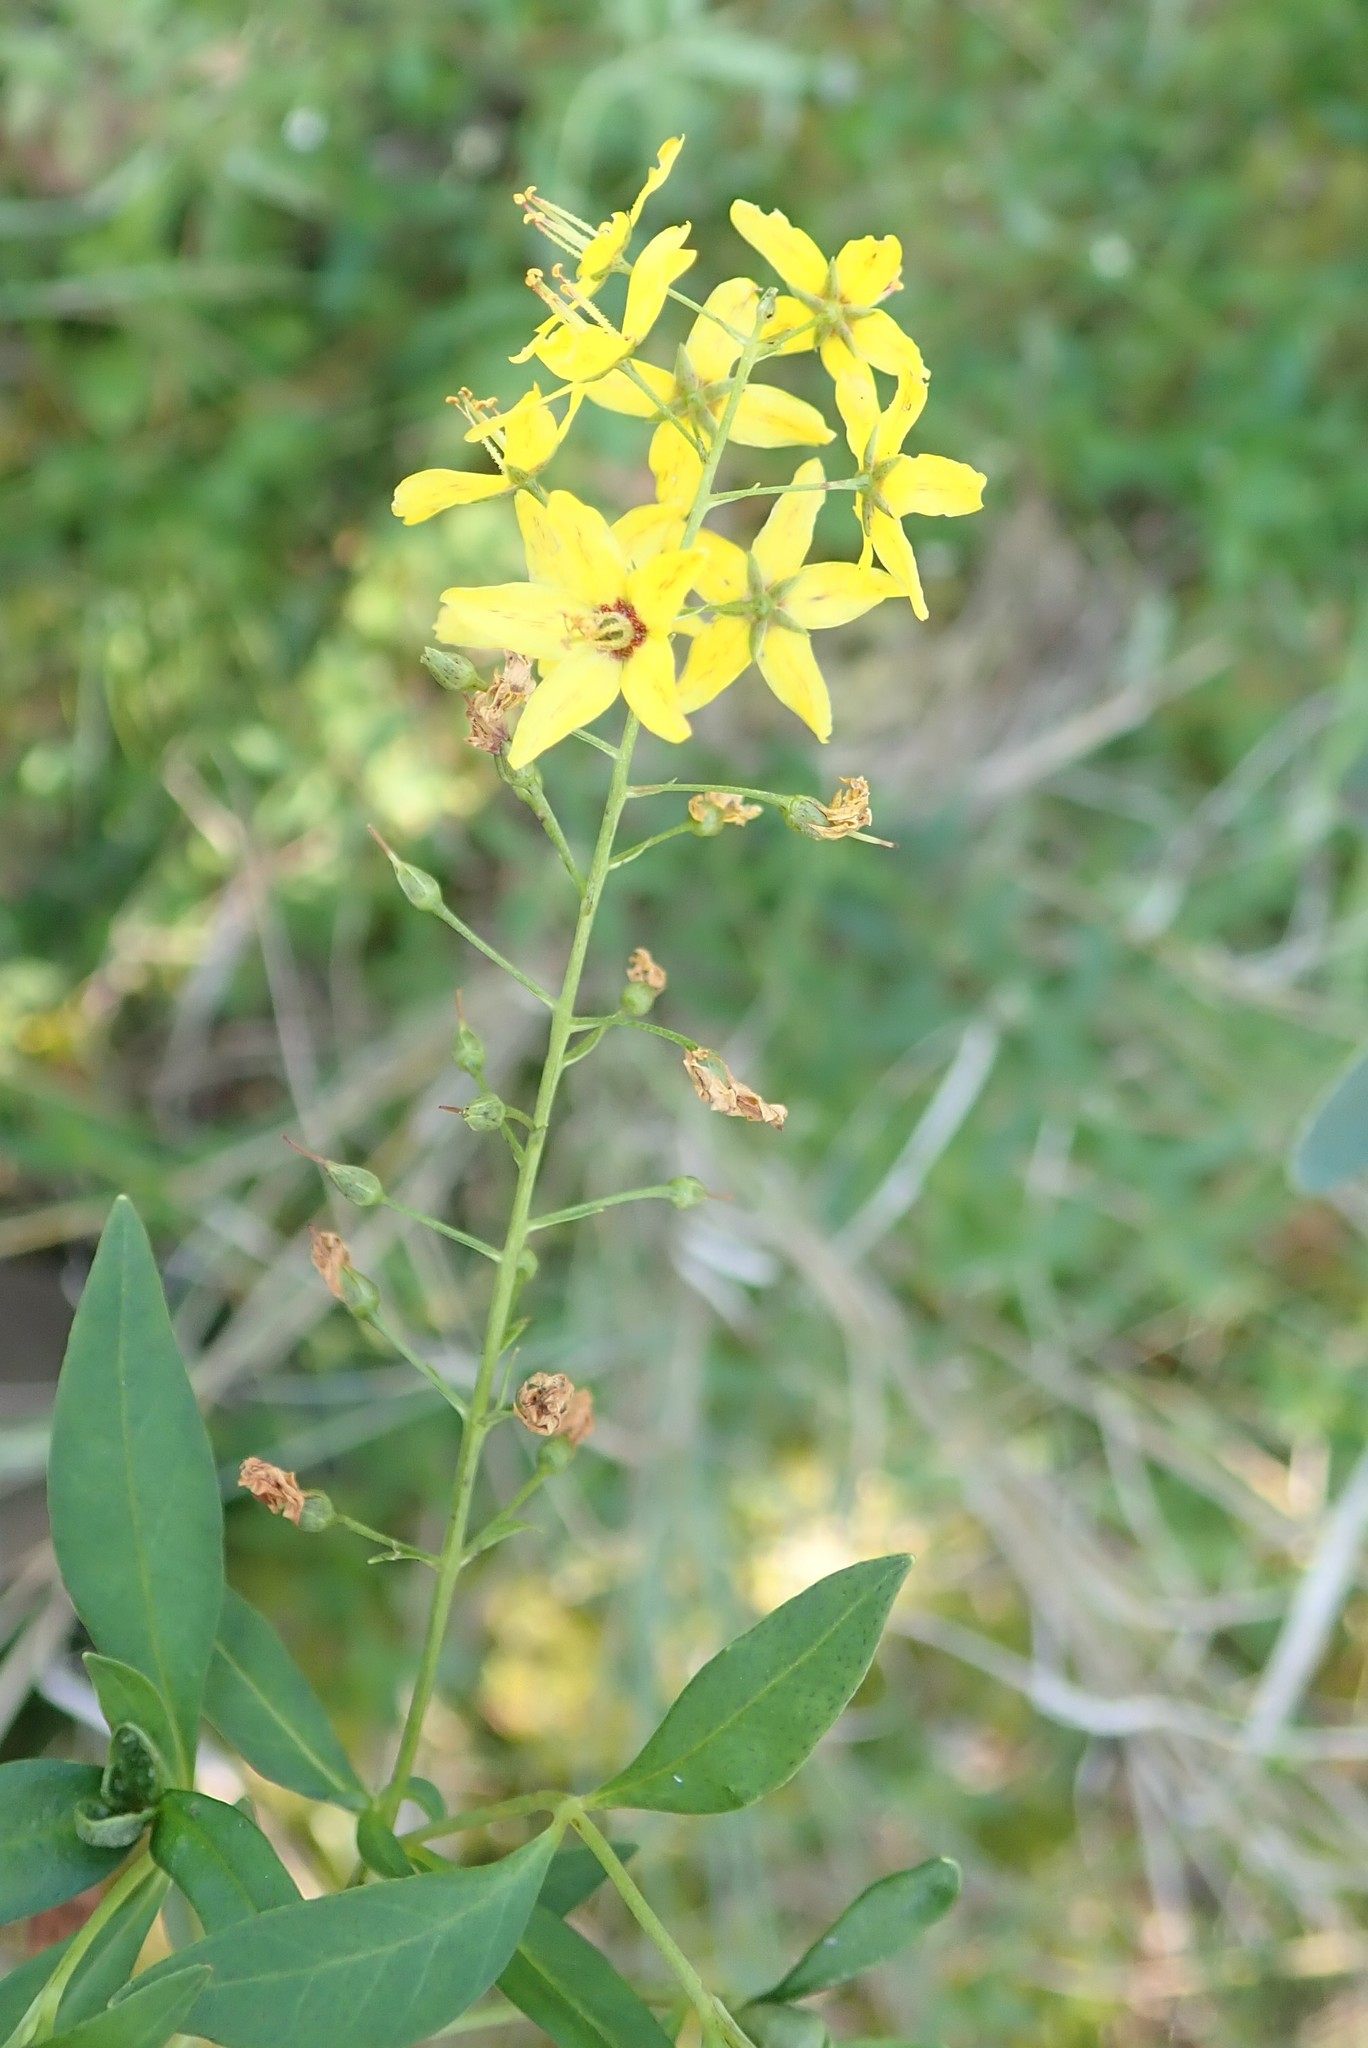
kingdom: Plantae
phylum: Tracheophyta
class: Magnoliopsida
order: Ericales
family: Primulaceae
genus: Lysimachia
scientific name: Lysimachia terrestris
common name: Lake loosestrife
